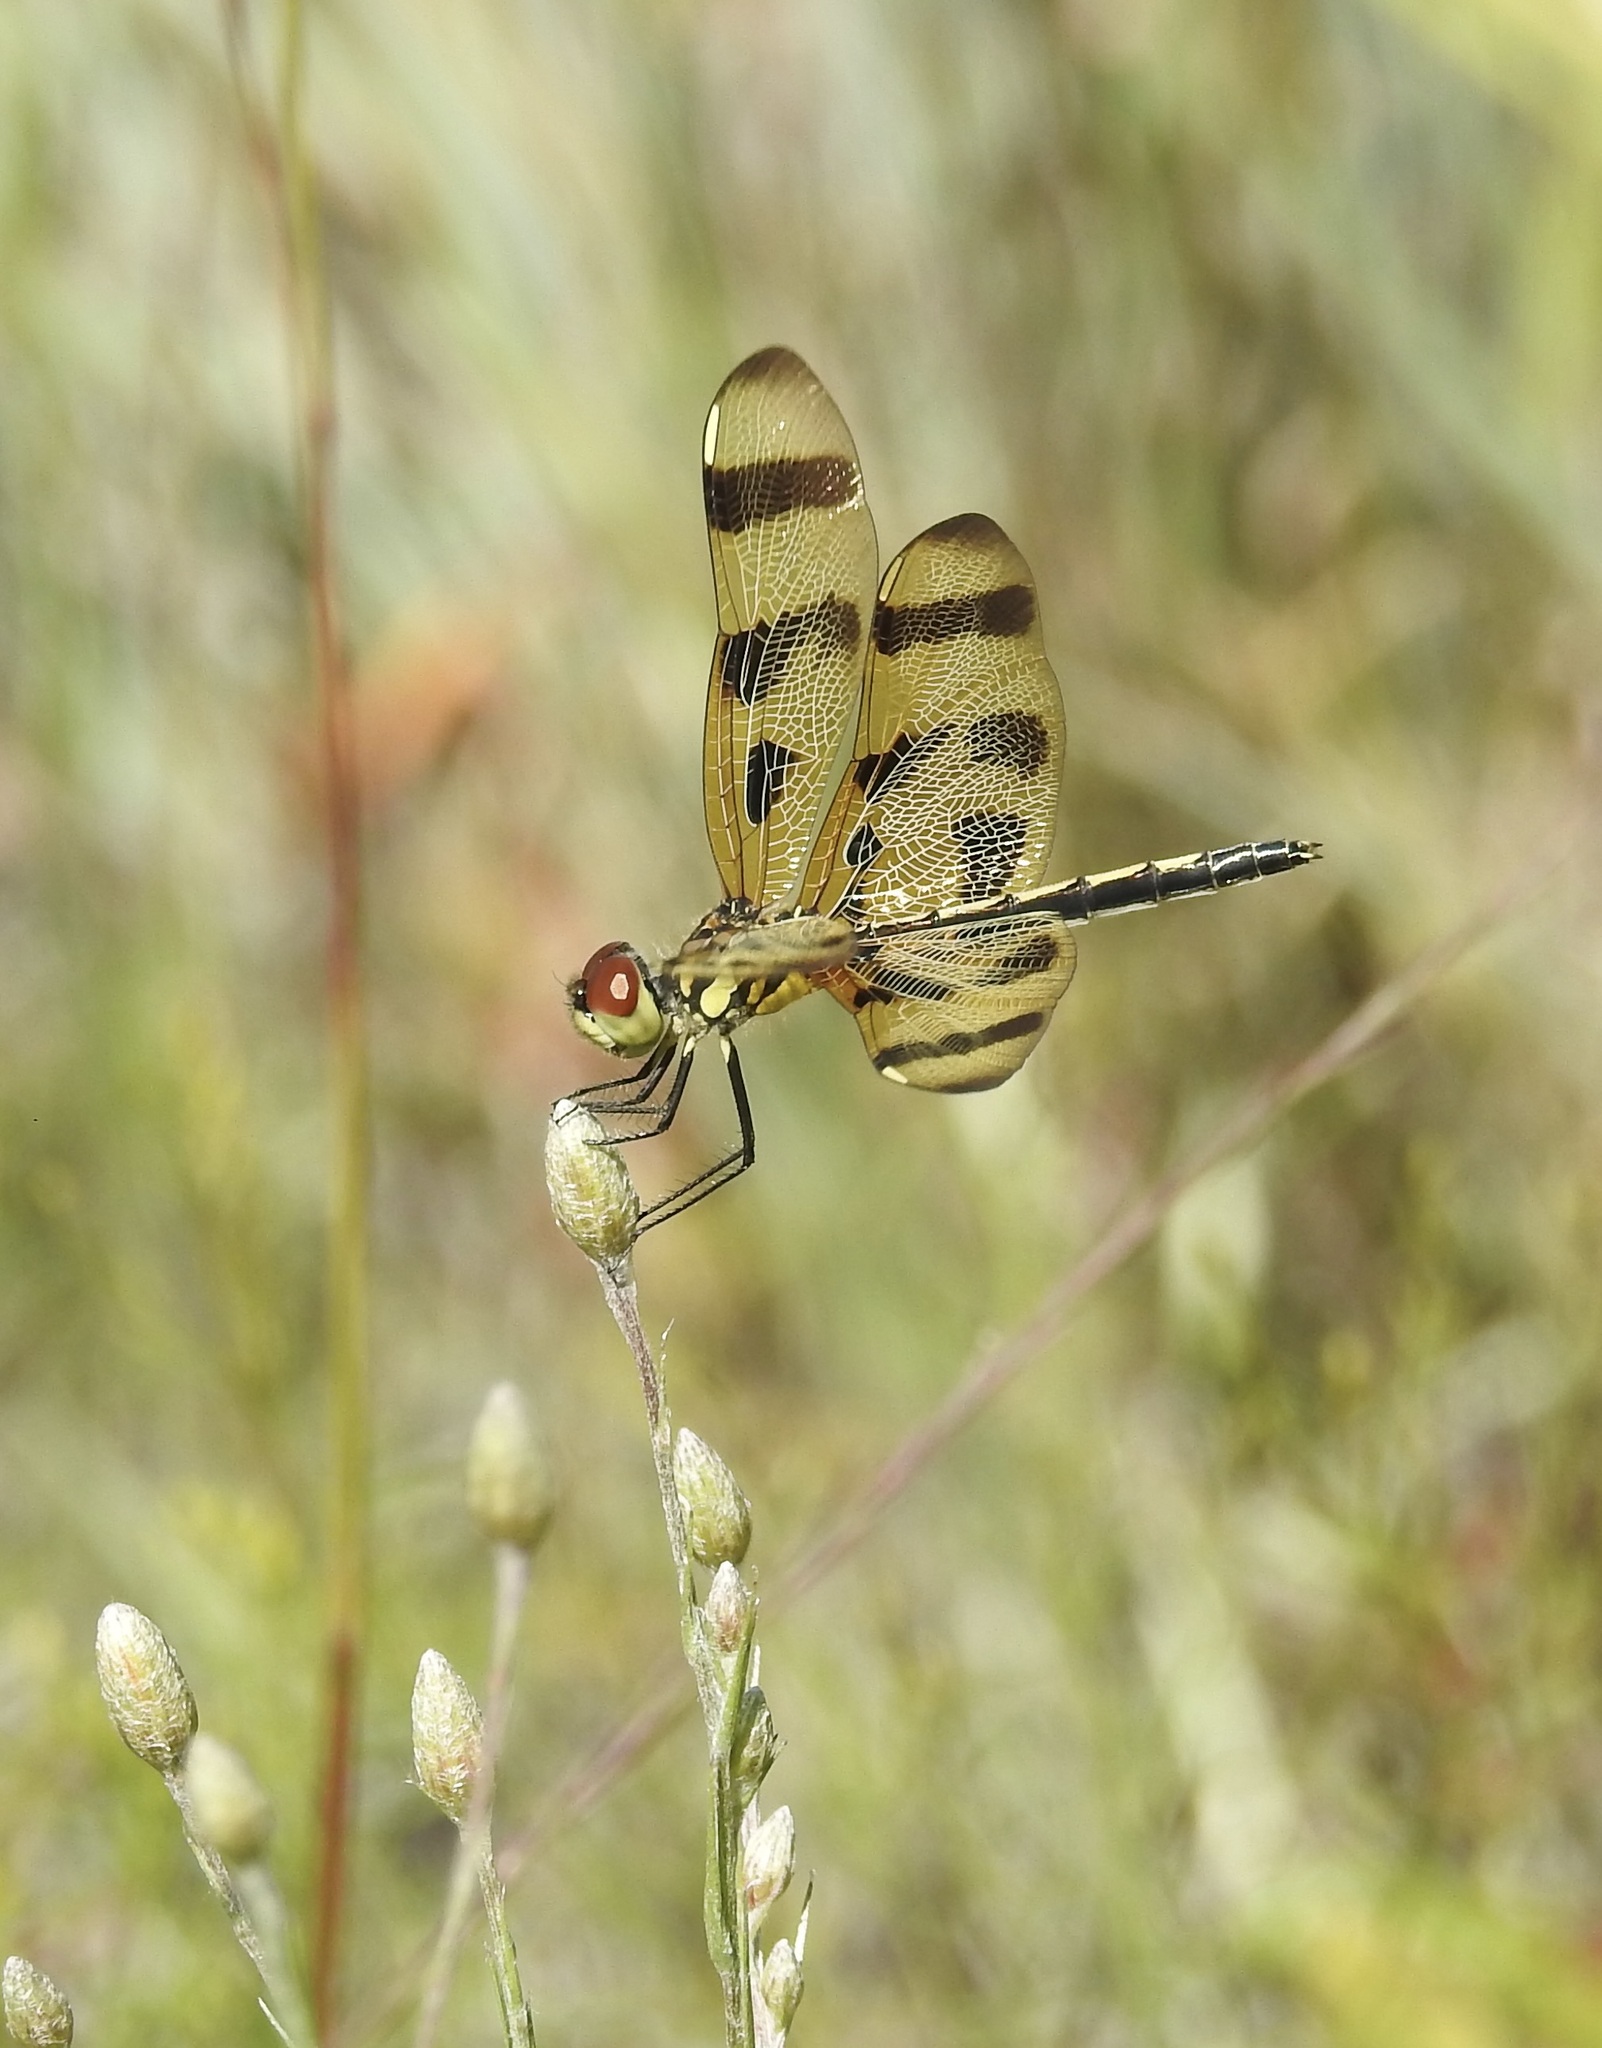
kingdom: Animalia
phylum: Arthropoda
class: Insecta
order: Odonata
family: Libellulidae
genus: Celithemis
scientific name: Celithemis eponina
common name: Halloween pennant
